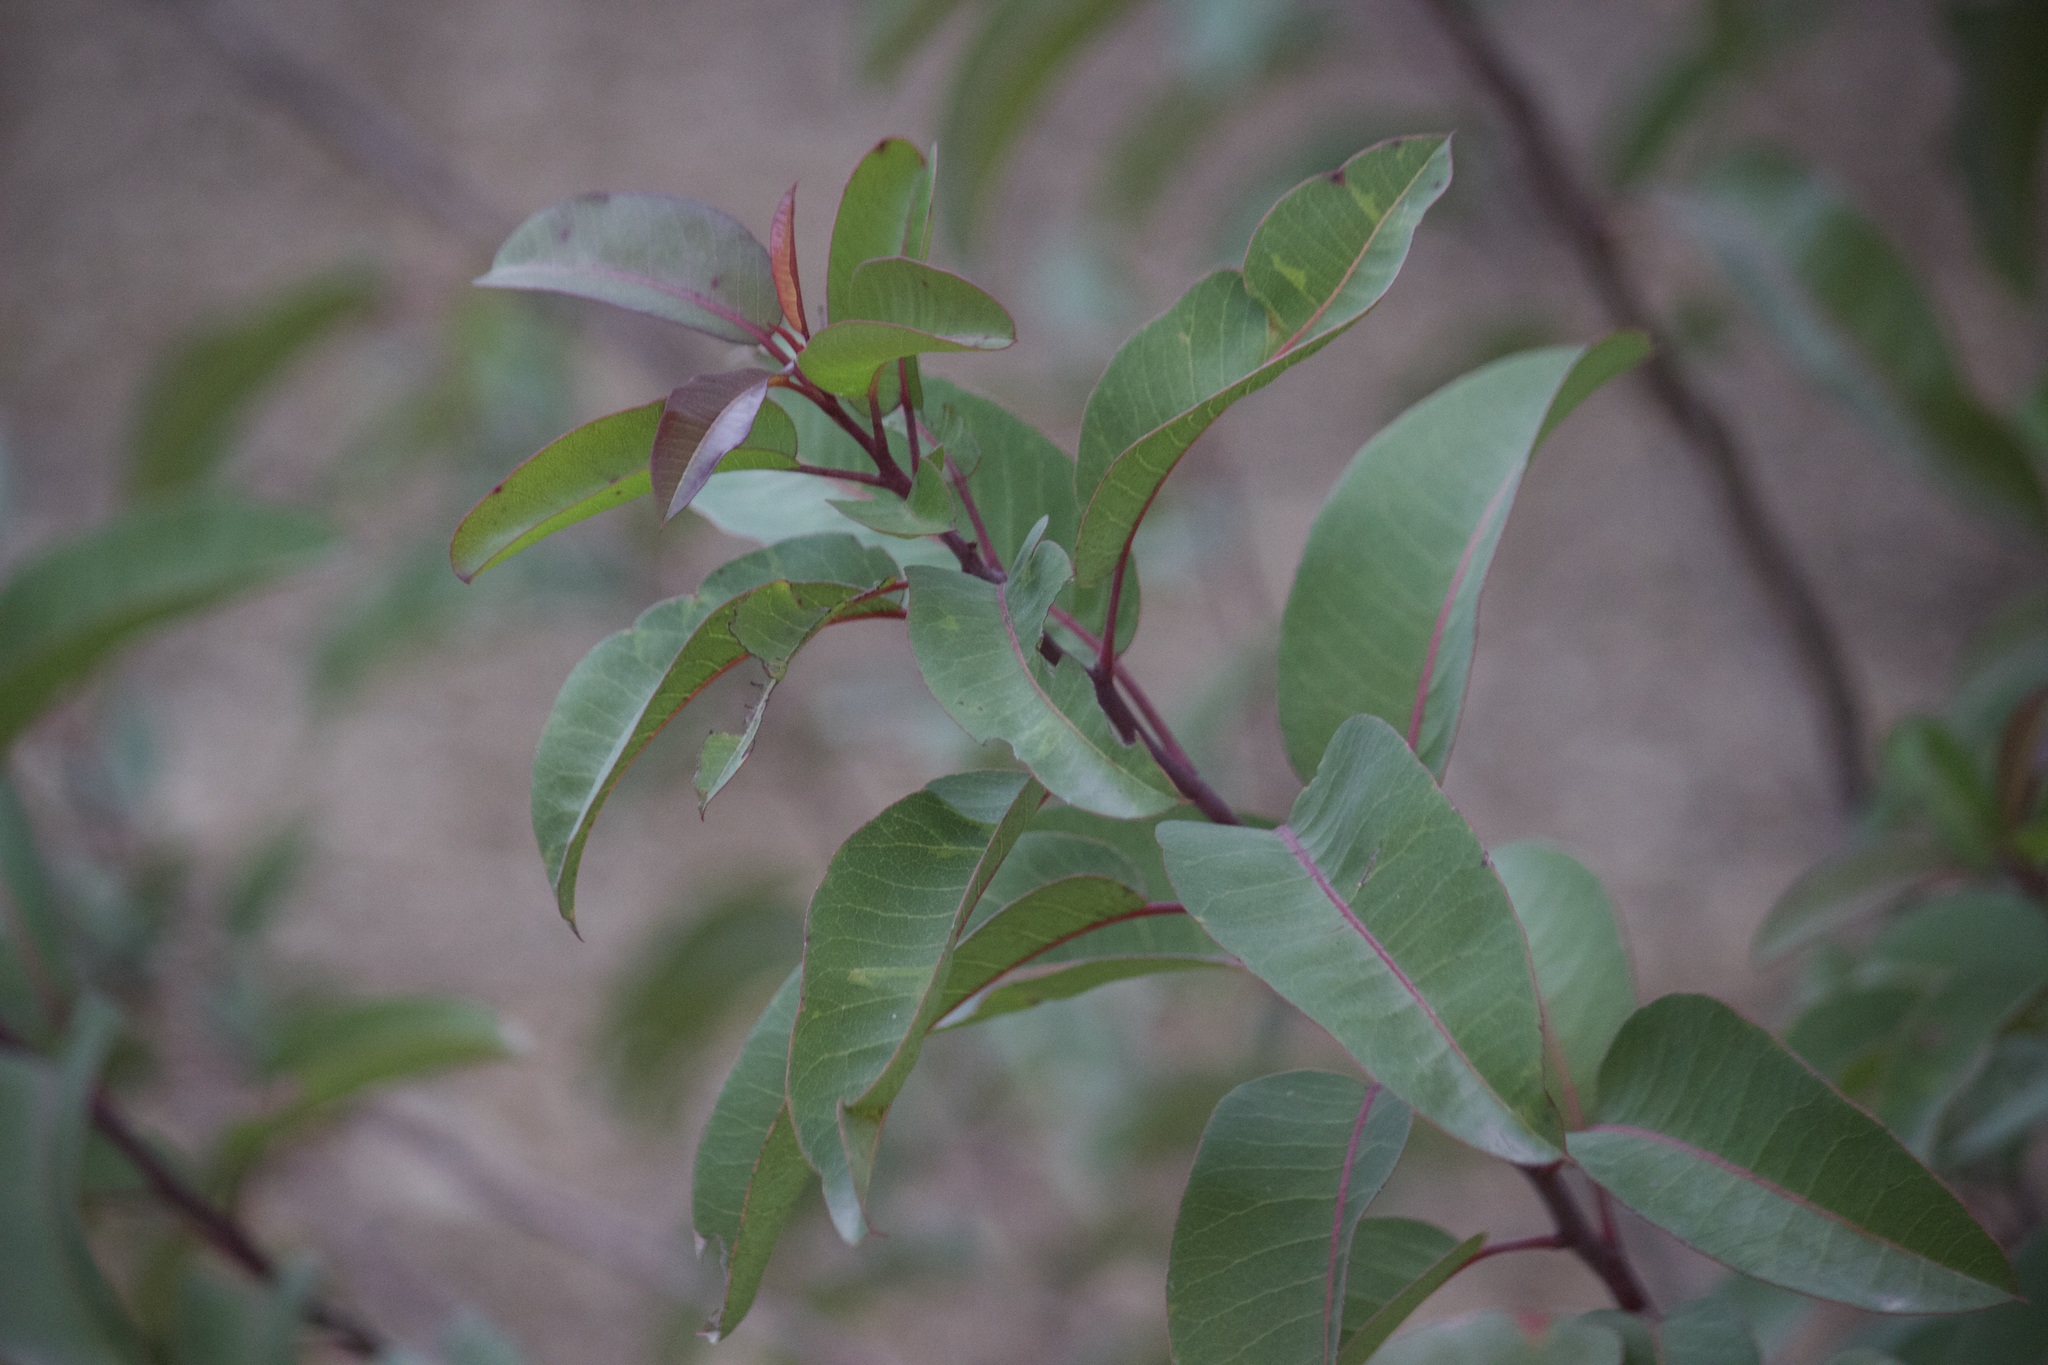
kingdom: Plantae
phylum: Tracheophyta
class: Magnoliopsida
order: Sapindales
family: Anacardiaceae
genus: Malosma
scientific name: Malosma laurina
